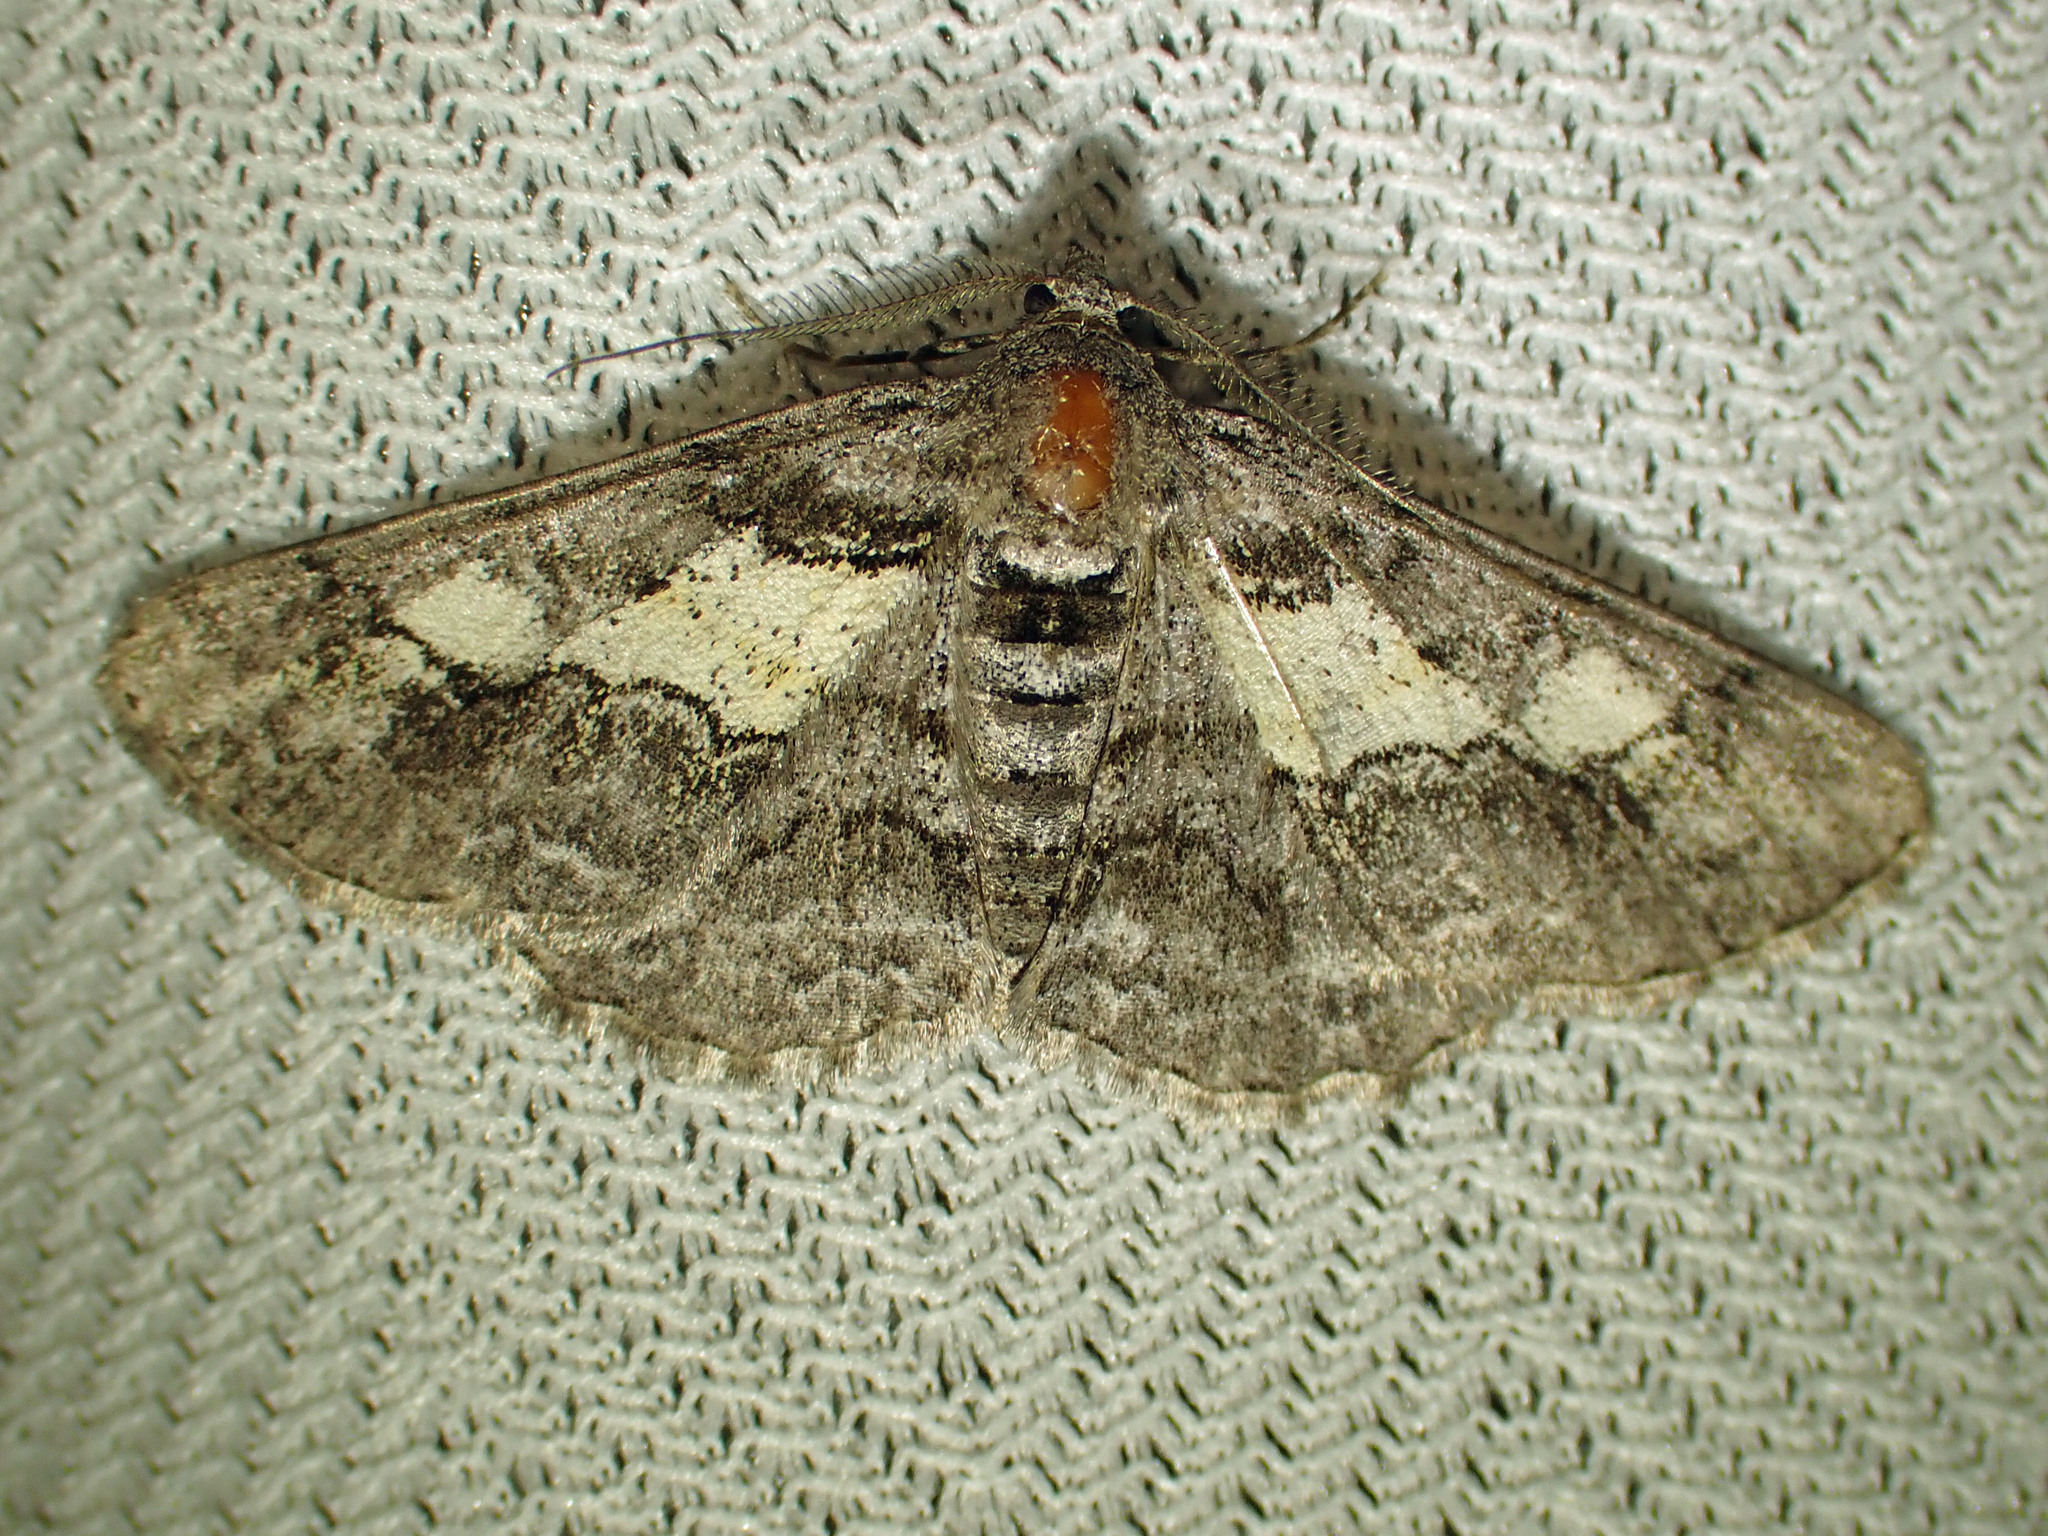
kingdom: Animalia
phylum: Arthropoda
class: Insecta
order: Lepidoptera
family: Geometridae
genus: Cleora
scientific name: Cleora projecta
